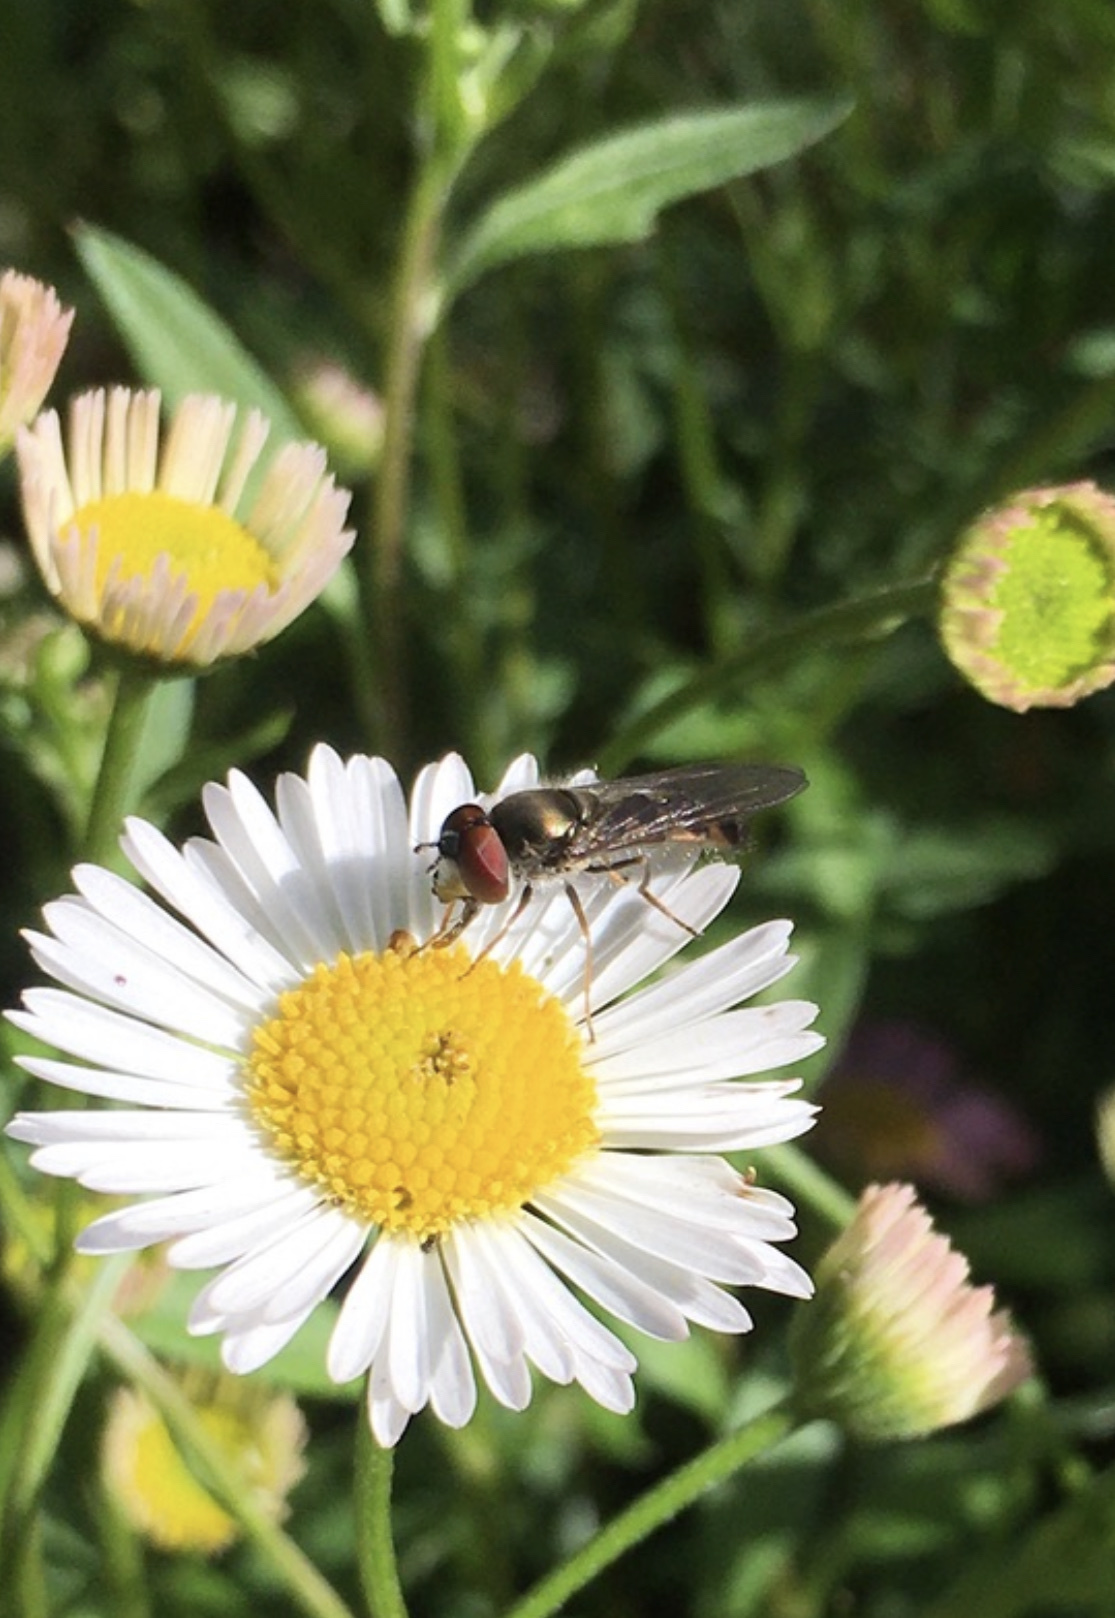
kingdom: Animalia
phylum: Arthropoda
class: Insecta
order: Diptera
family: Syrphidae
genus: Platycheirus
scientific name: Platycheirus trichopus
